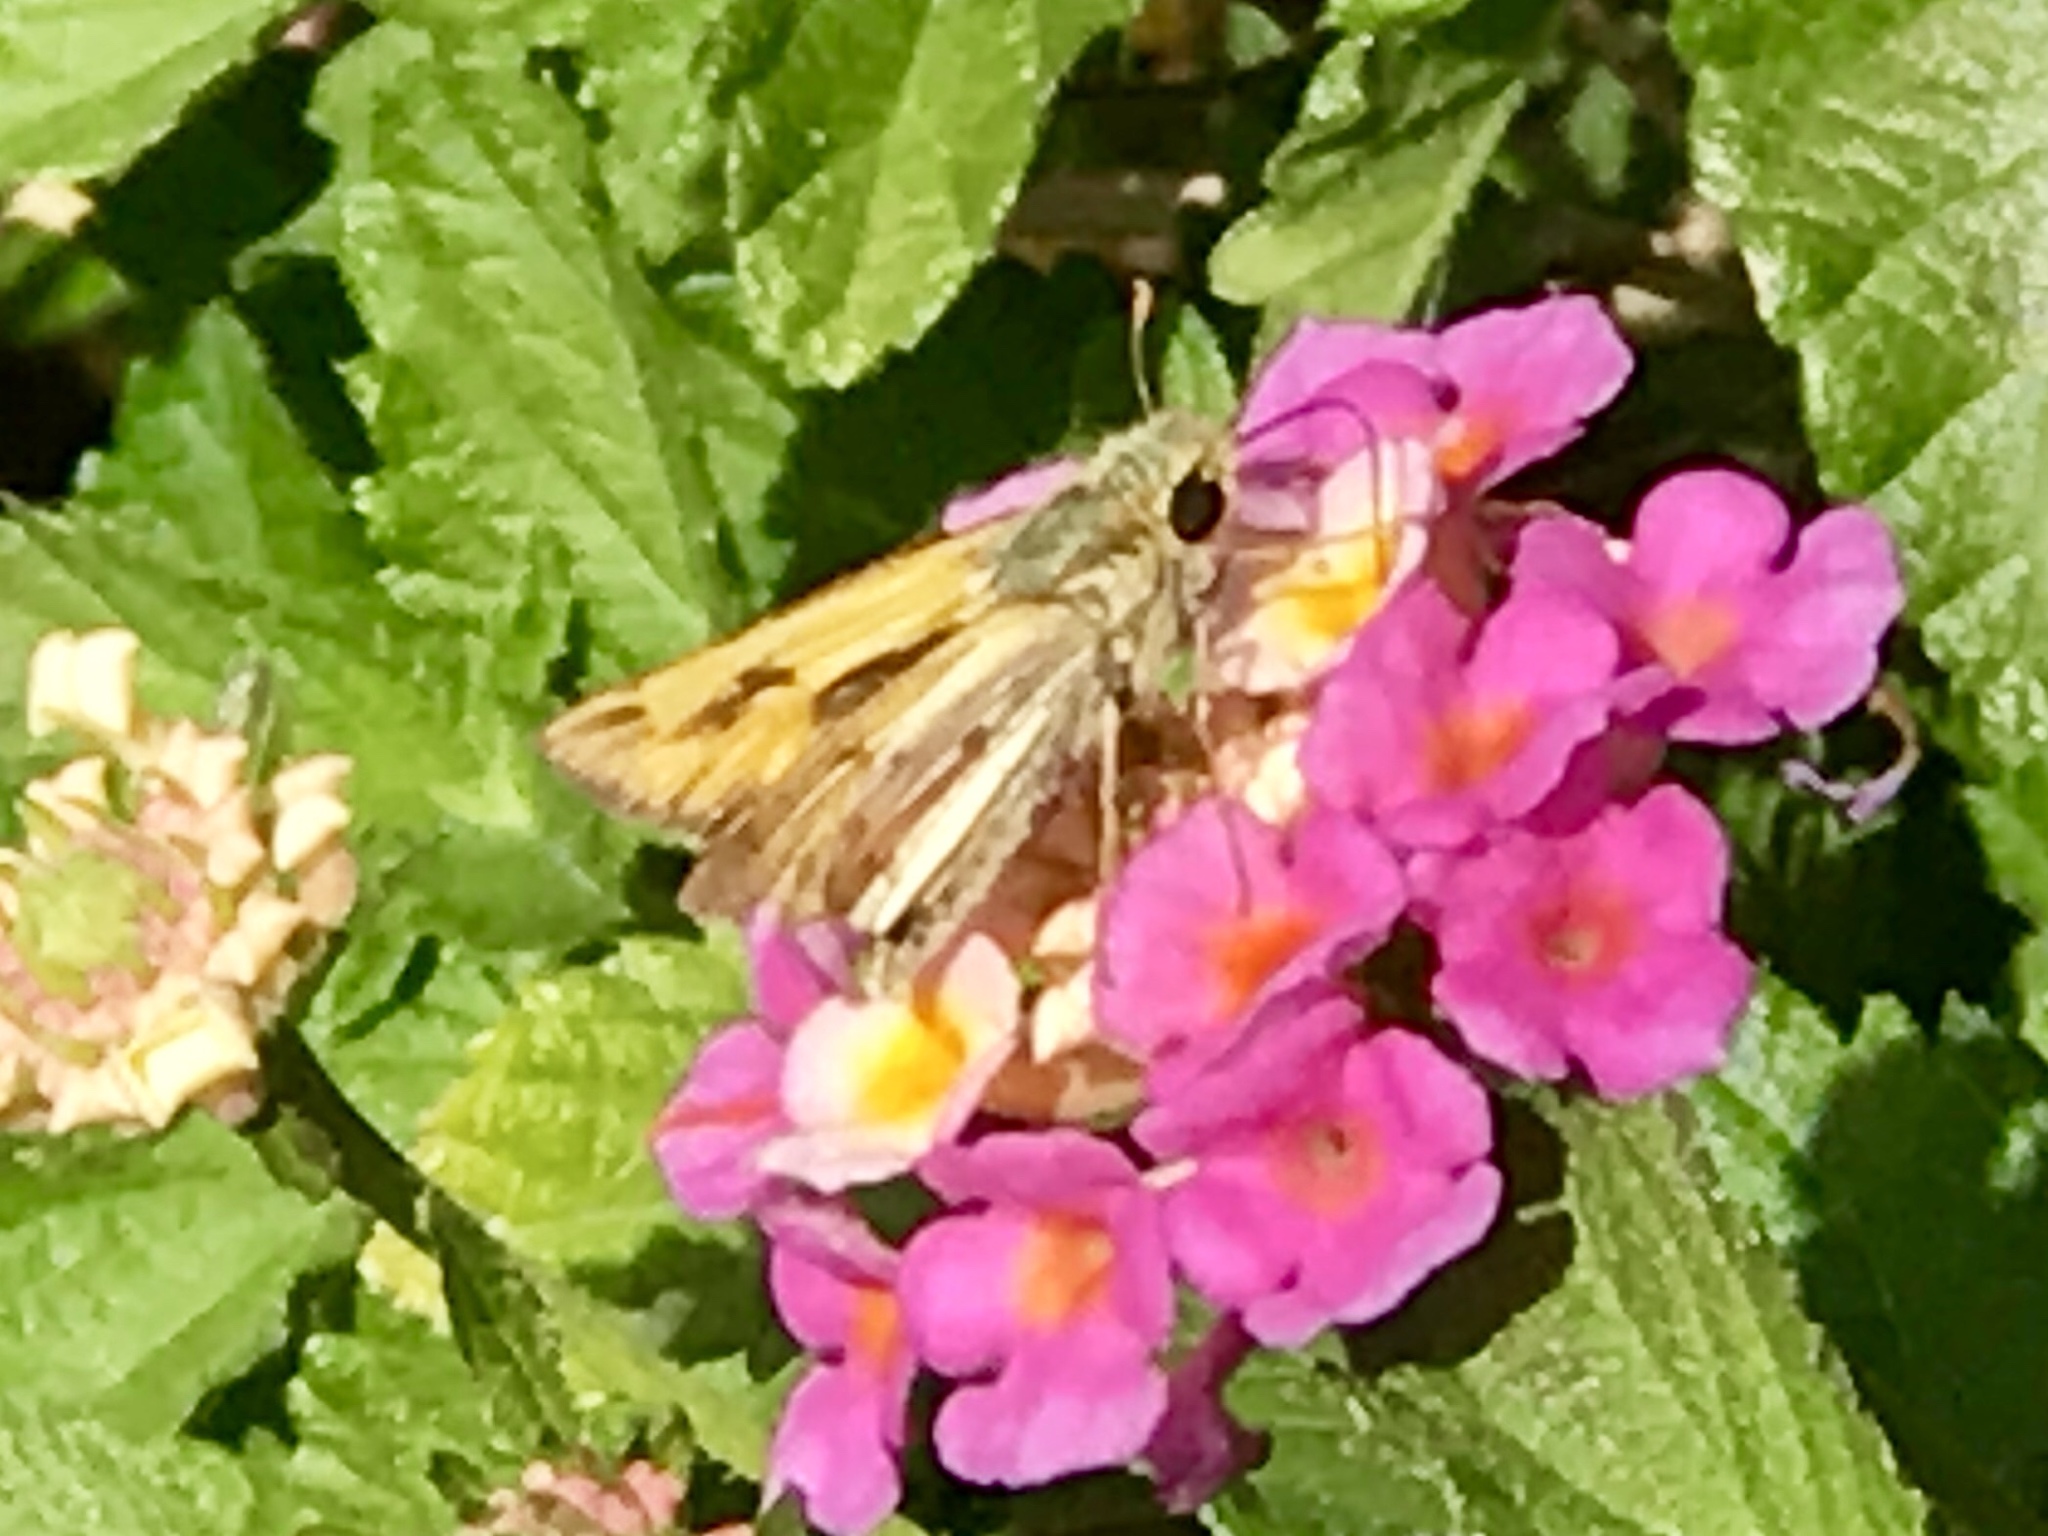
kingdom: Animalia
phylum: Arthropoda
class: Insecta
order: Lepidoptera
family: Hesperiidae
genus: Hylephila
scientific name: Hylephila phyleus
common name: Fiery skipper
